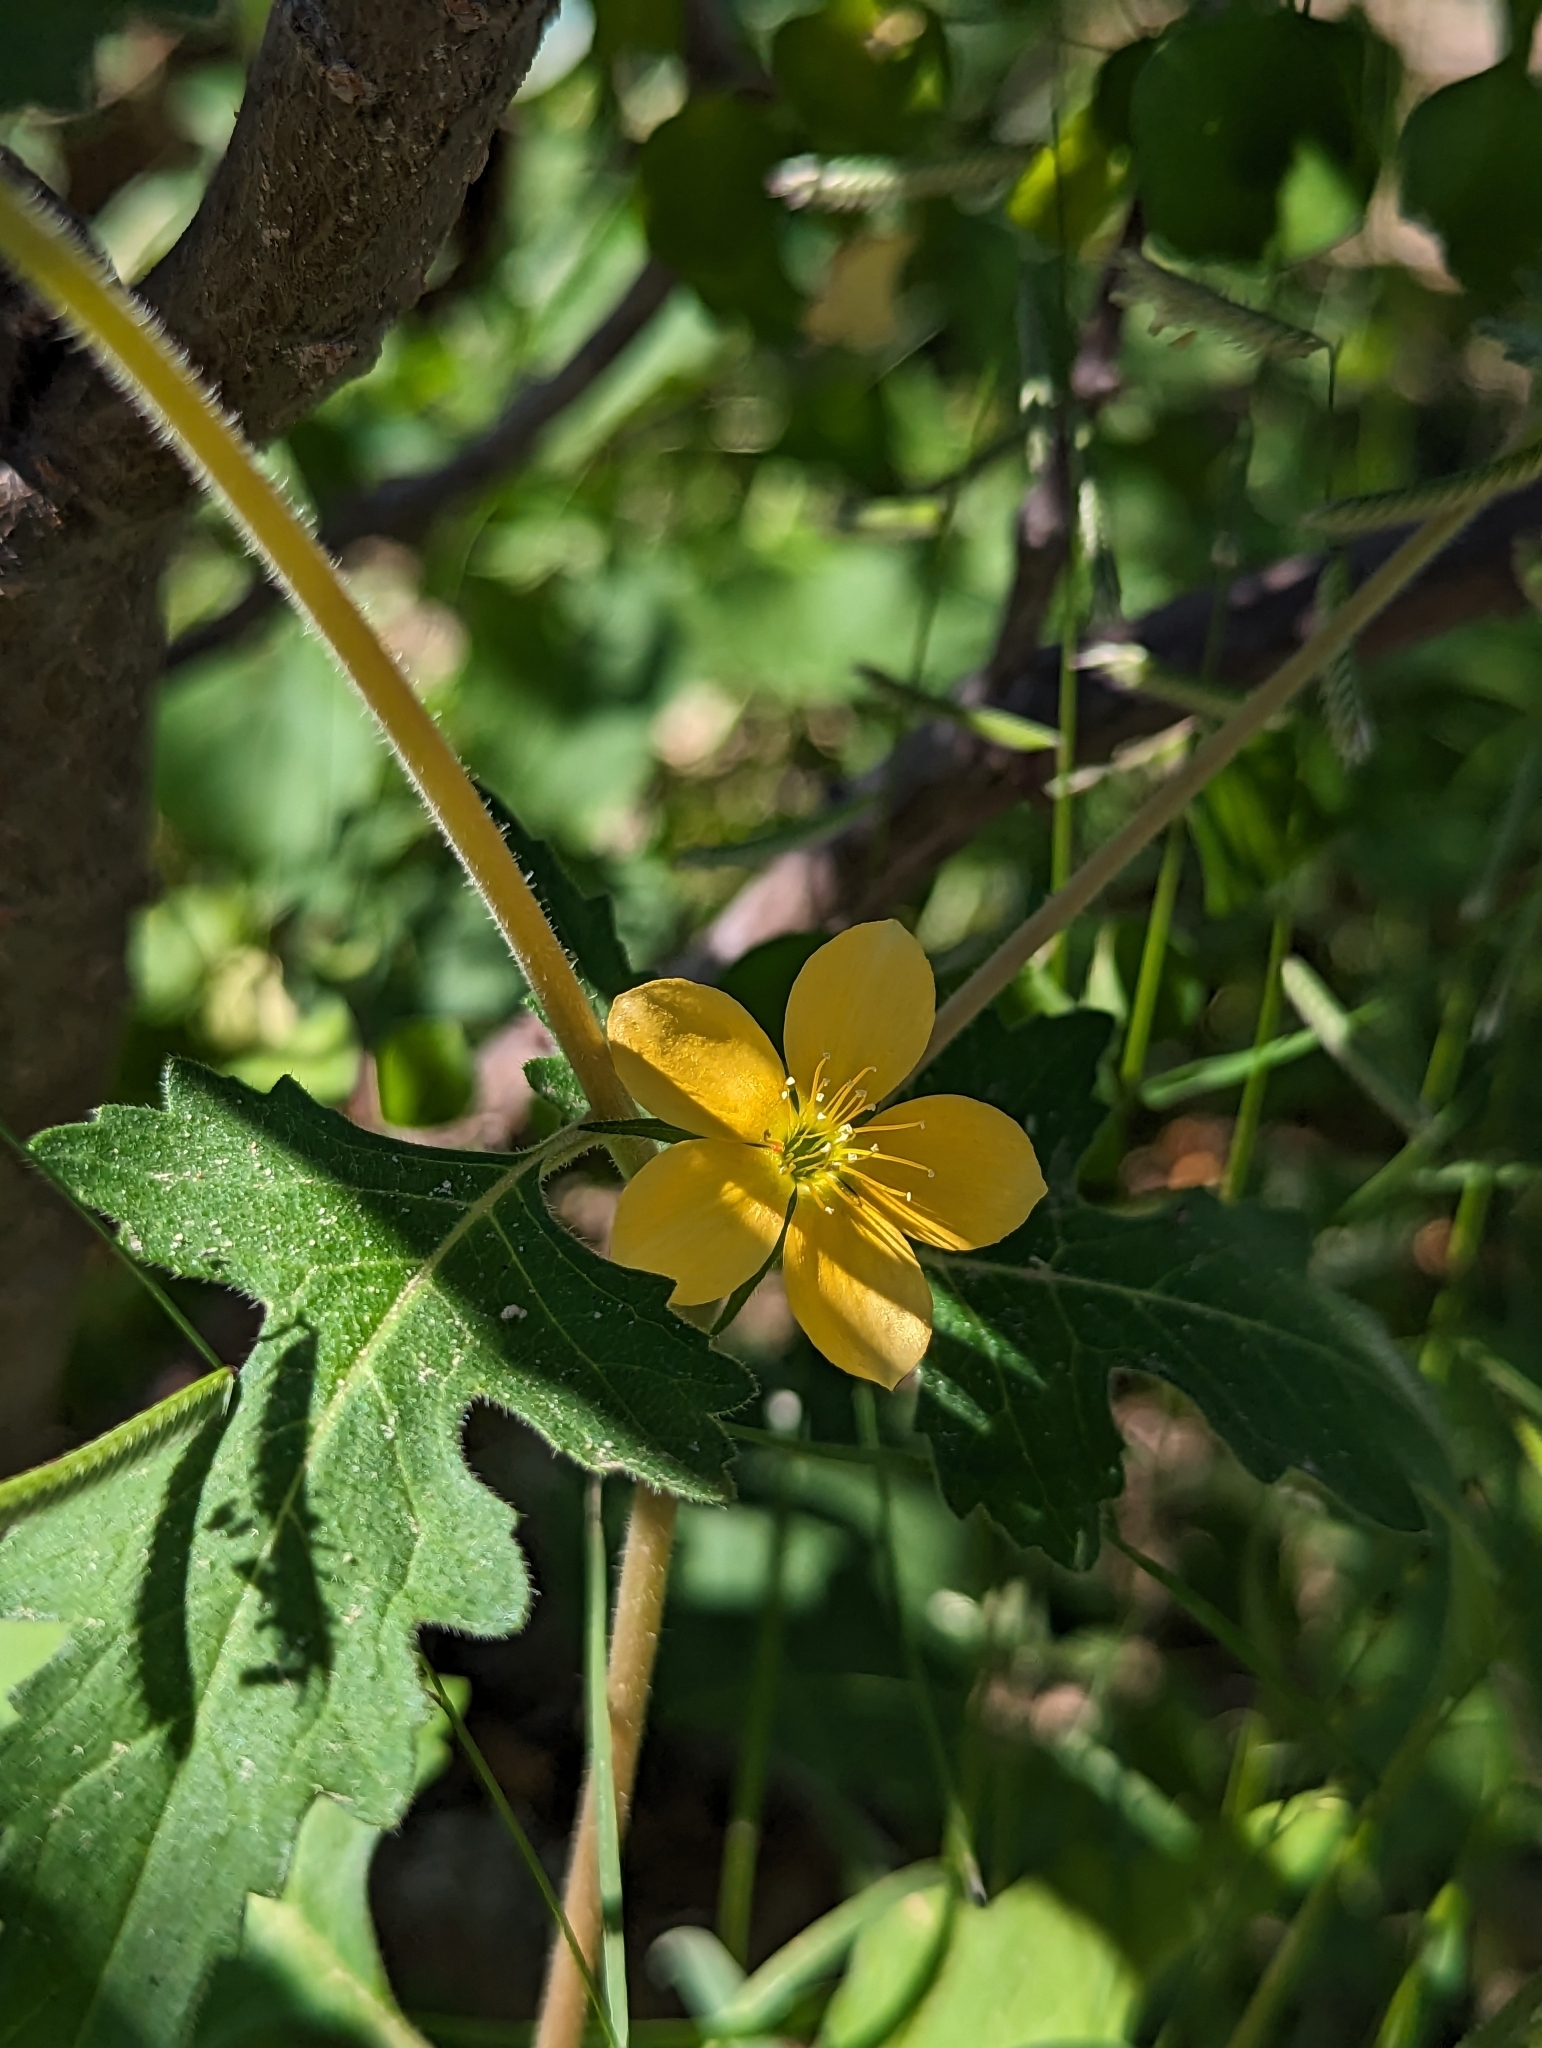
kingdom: Plantae
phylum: Tracheophyta
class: Magnoliopsida
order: Cornales
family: Loasaceae
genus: Mentzelia
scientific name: Mentzelia adhaerens
